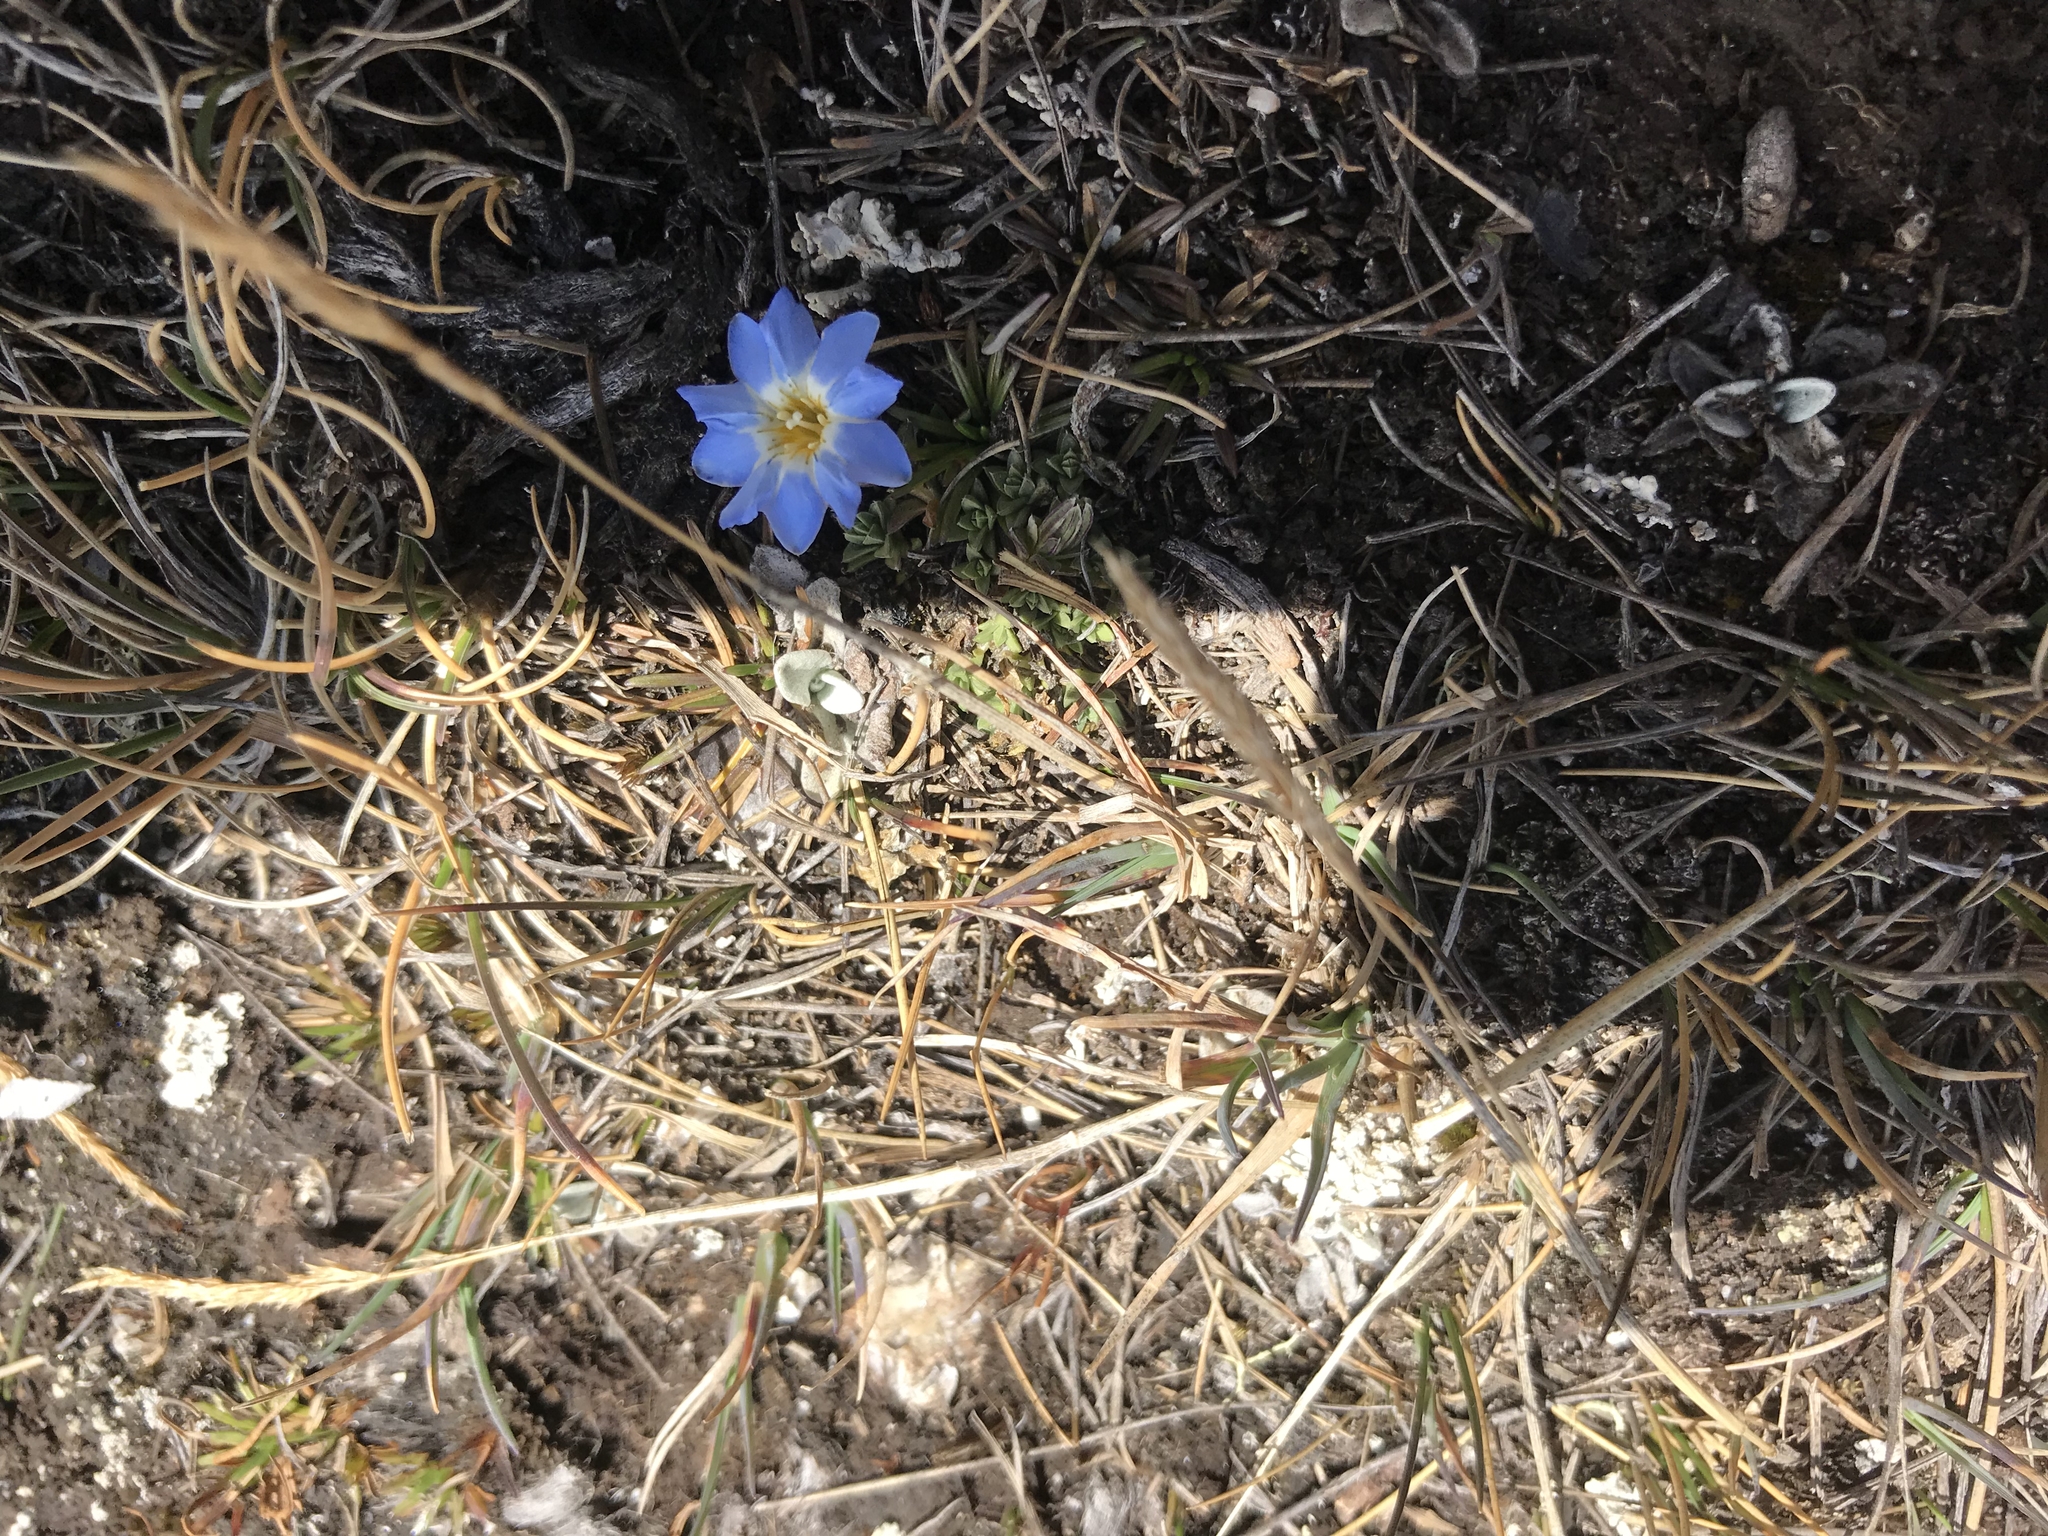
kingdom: Plantae
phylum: Tracheophyta
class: Magnoliopsida
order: Gentianales
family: Gentianaceae
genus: Gentiana
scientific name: Gentiana sedifolia
